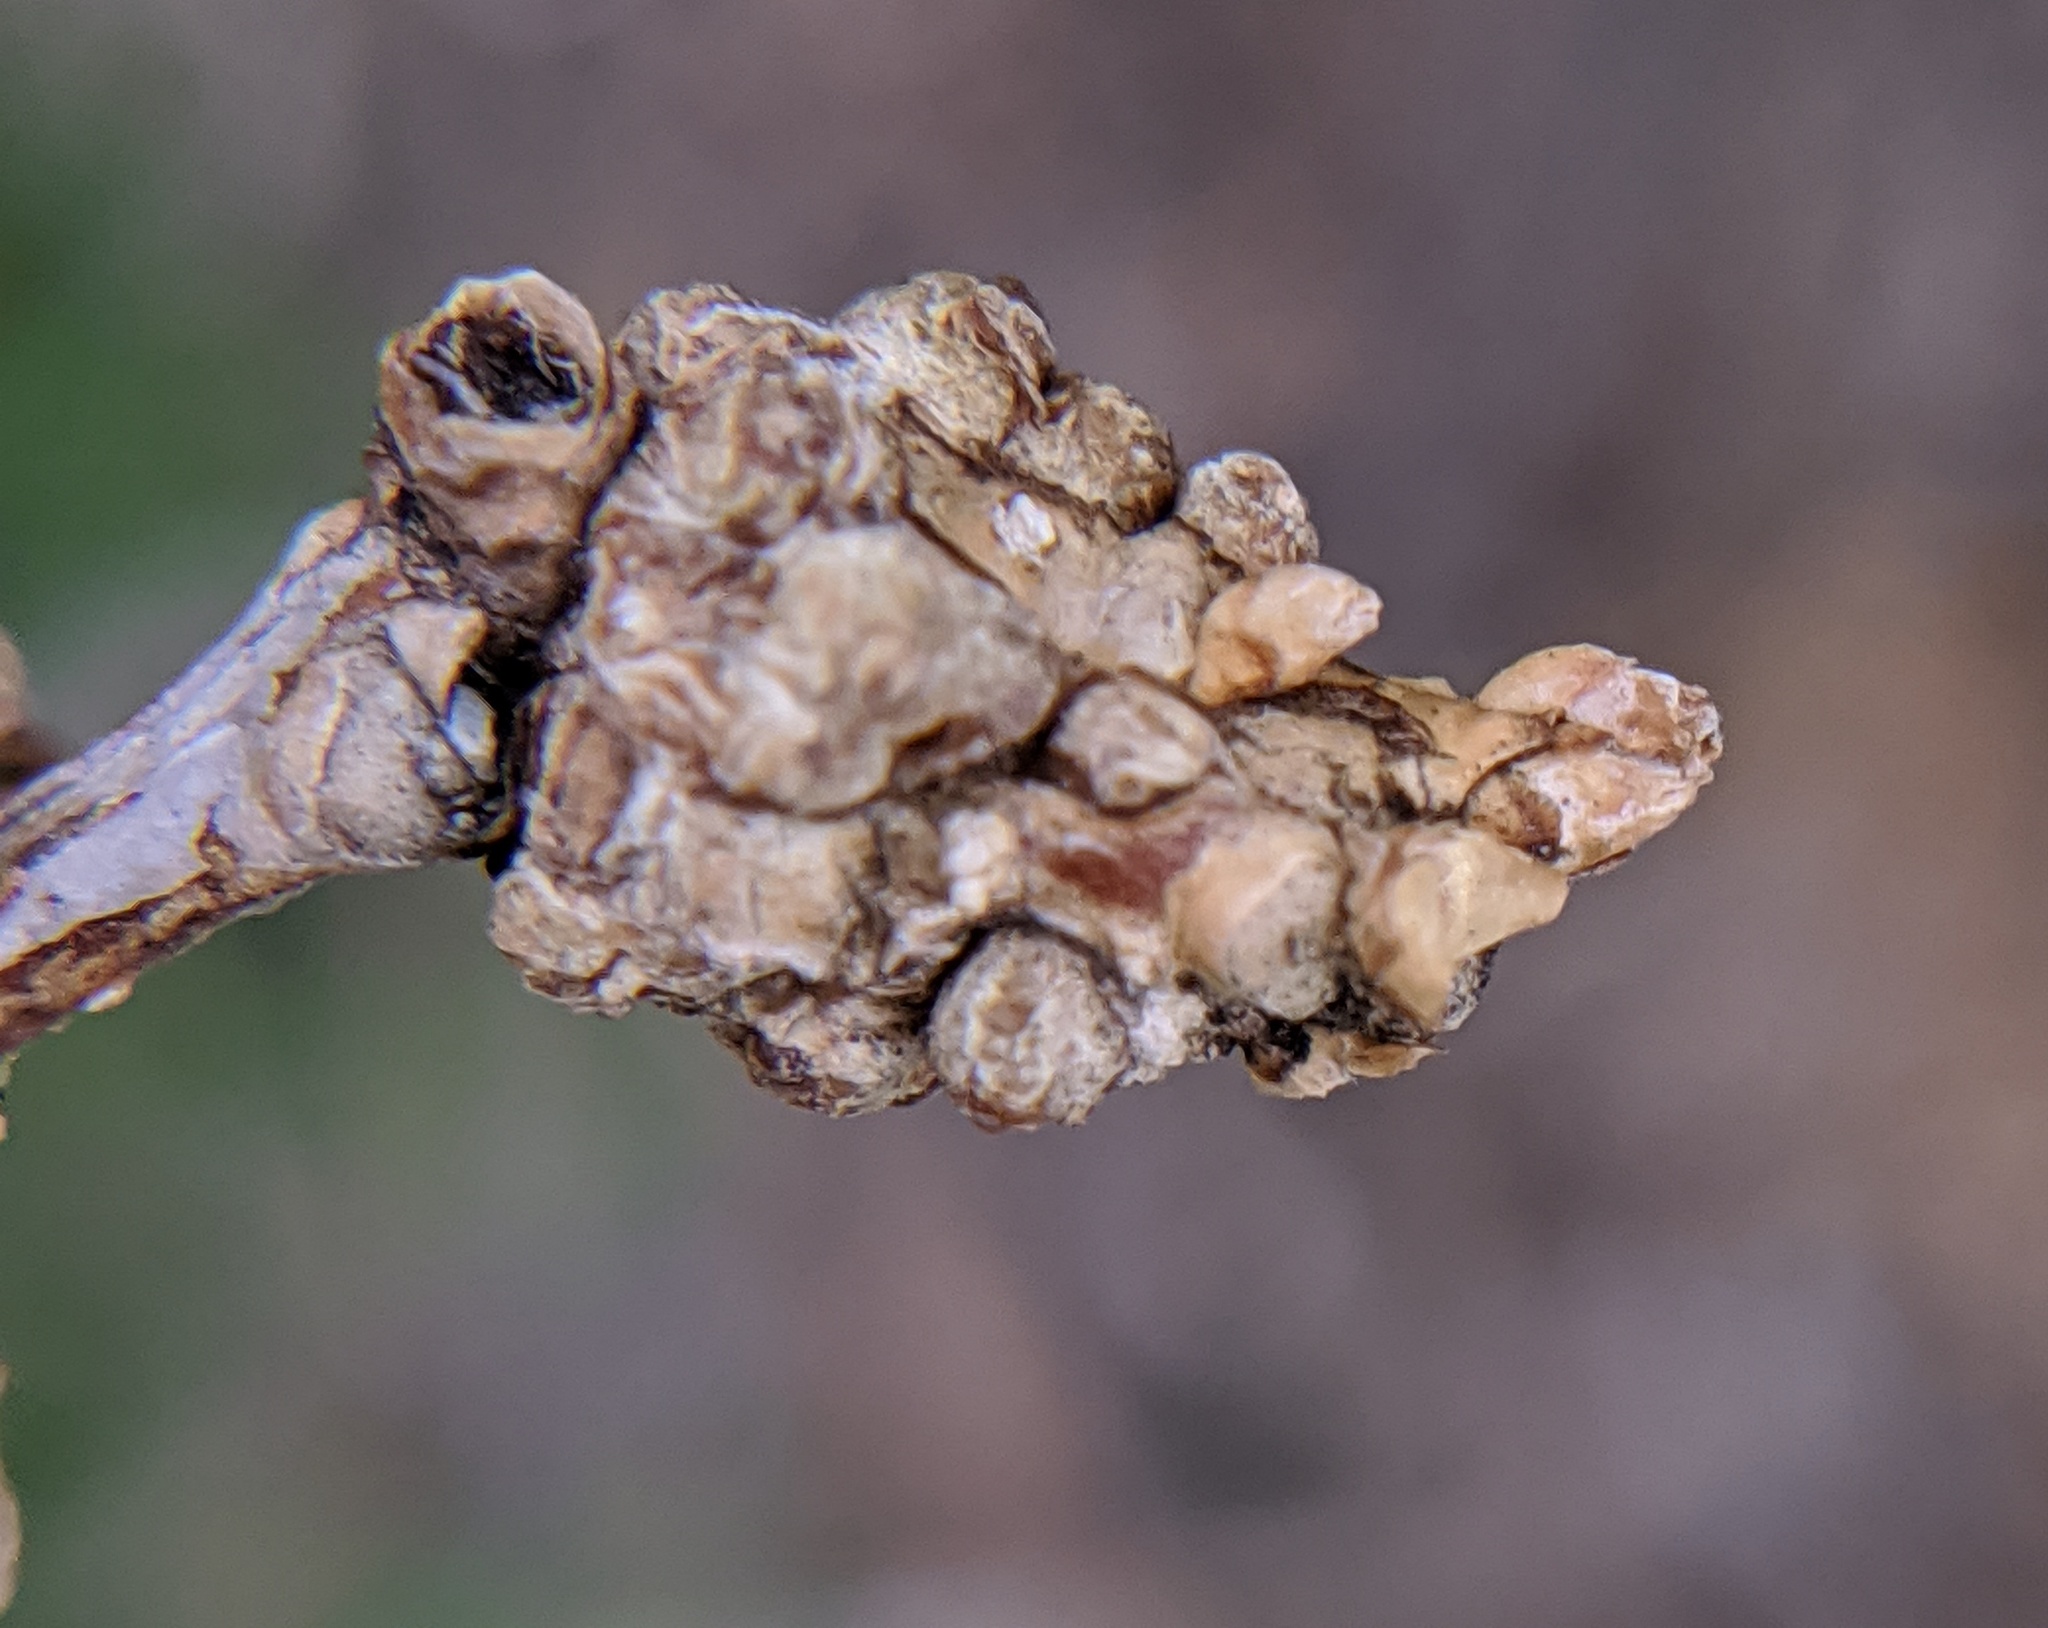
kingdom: Bacteria
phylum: Proteobacteria
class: Gammaproteobacteria
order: Pseudomonadales
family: Pseudomonadaceae
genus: Pseudomonas
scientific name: Pseudomonas
